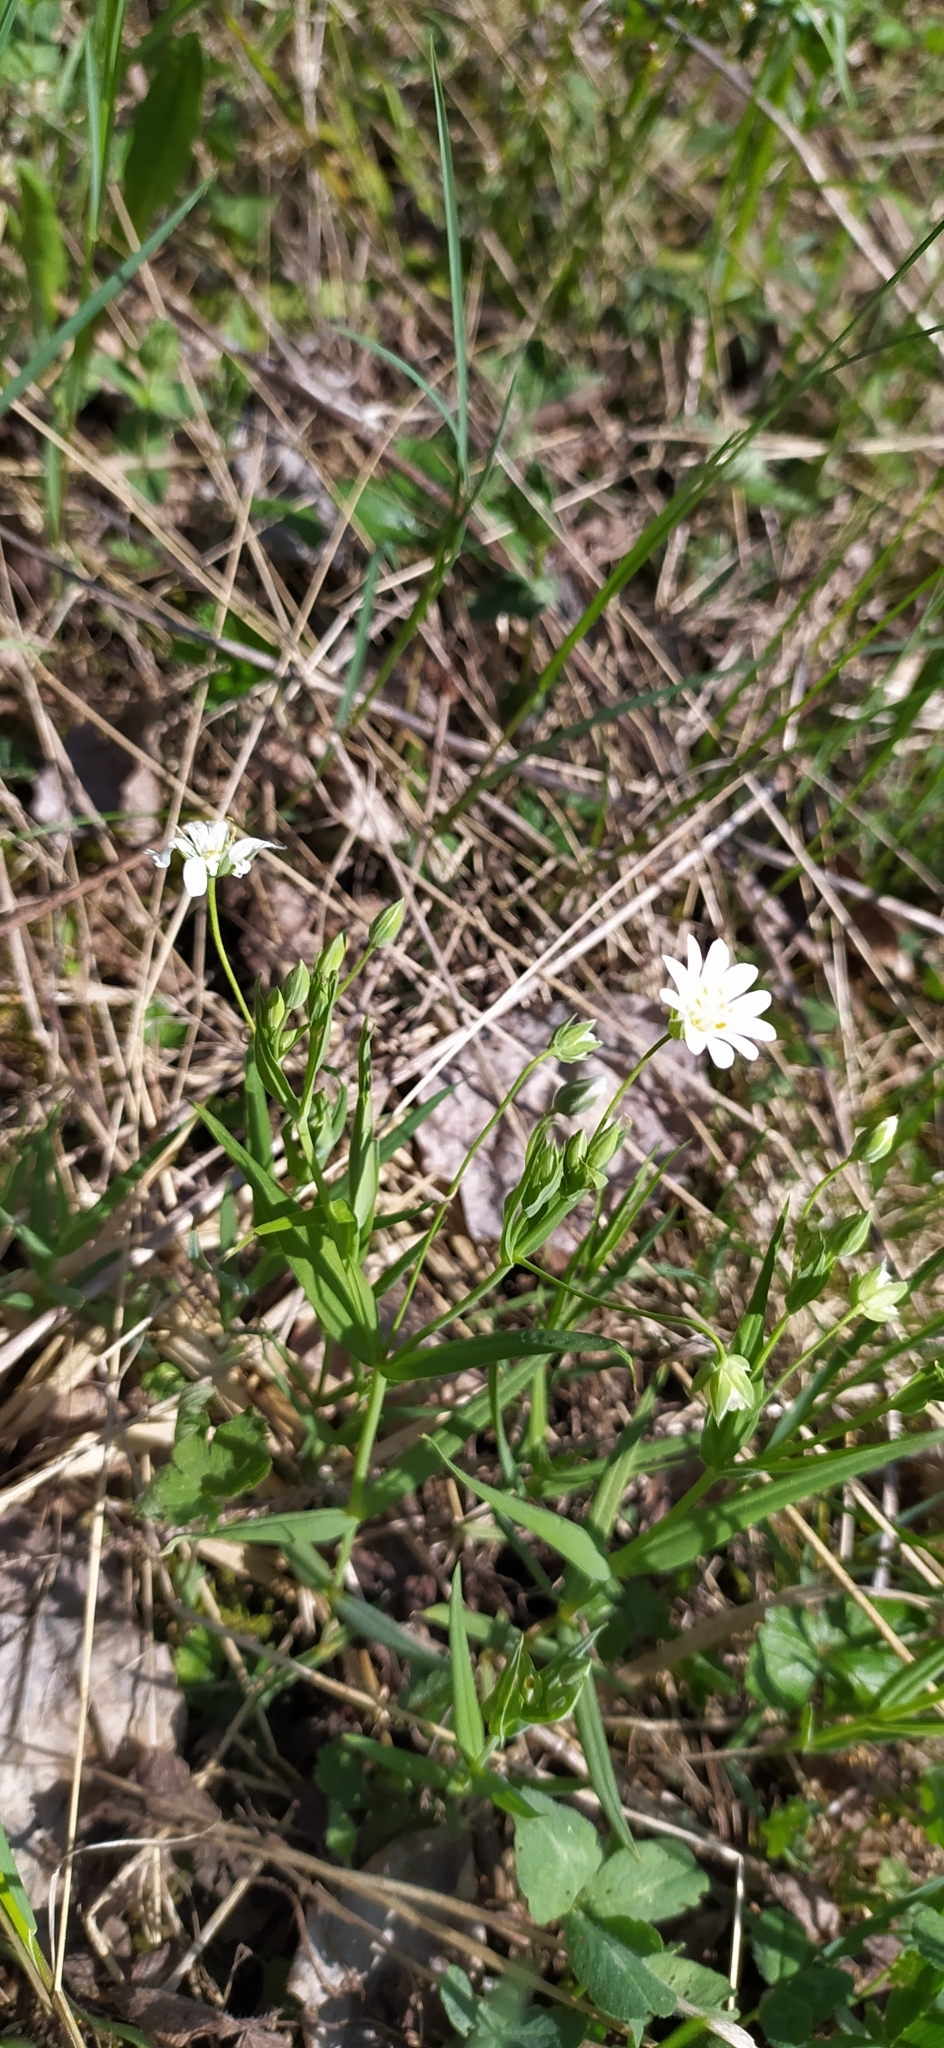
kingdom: Plantae
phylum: Tracheophyta
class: Magnoliopsida
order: Caryophyllales
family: Caryophyllaceae
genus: Rabelera
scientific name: Rabelera holostea
